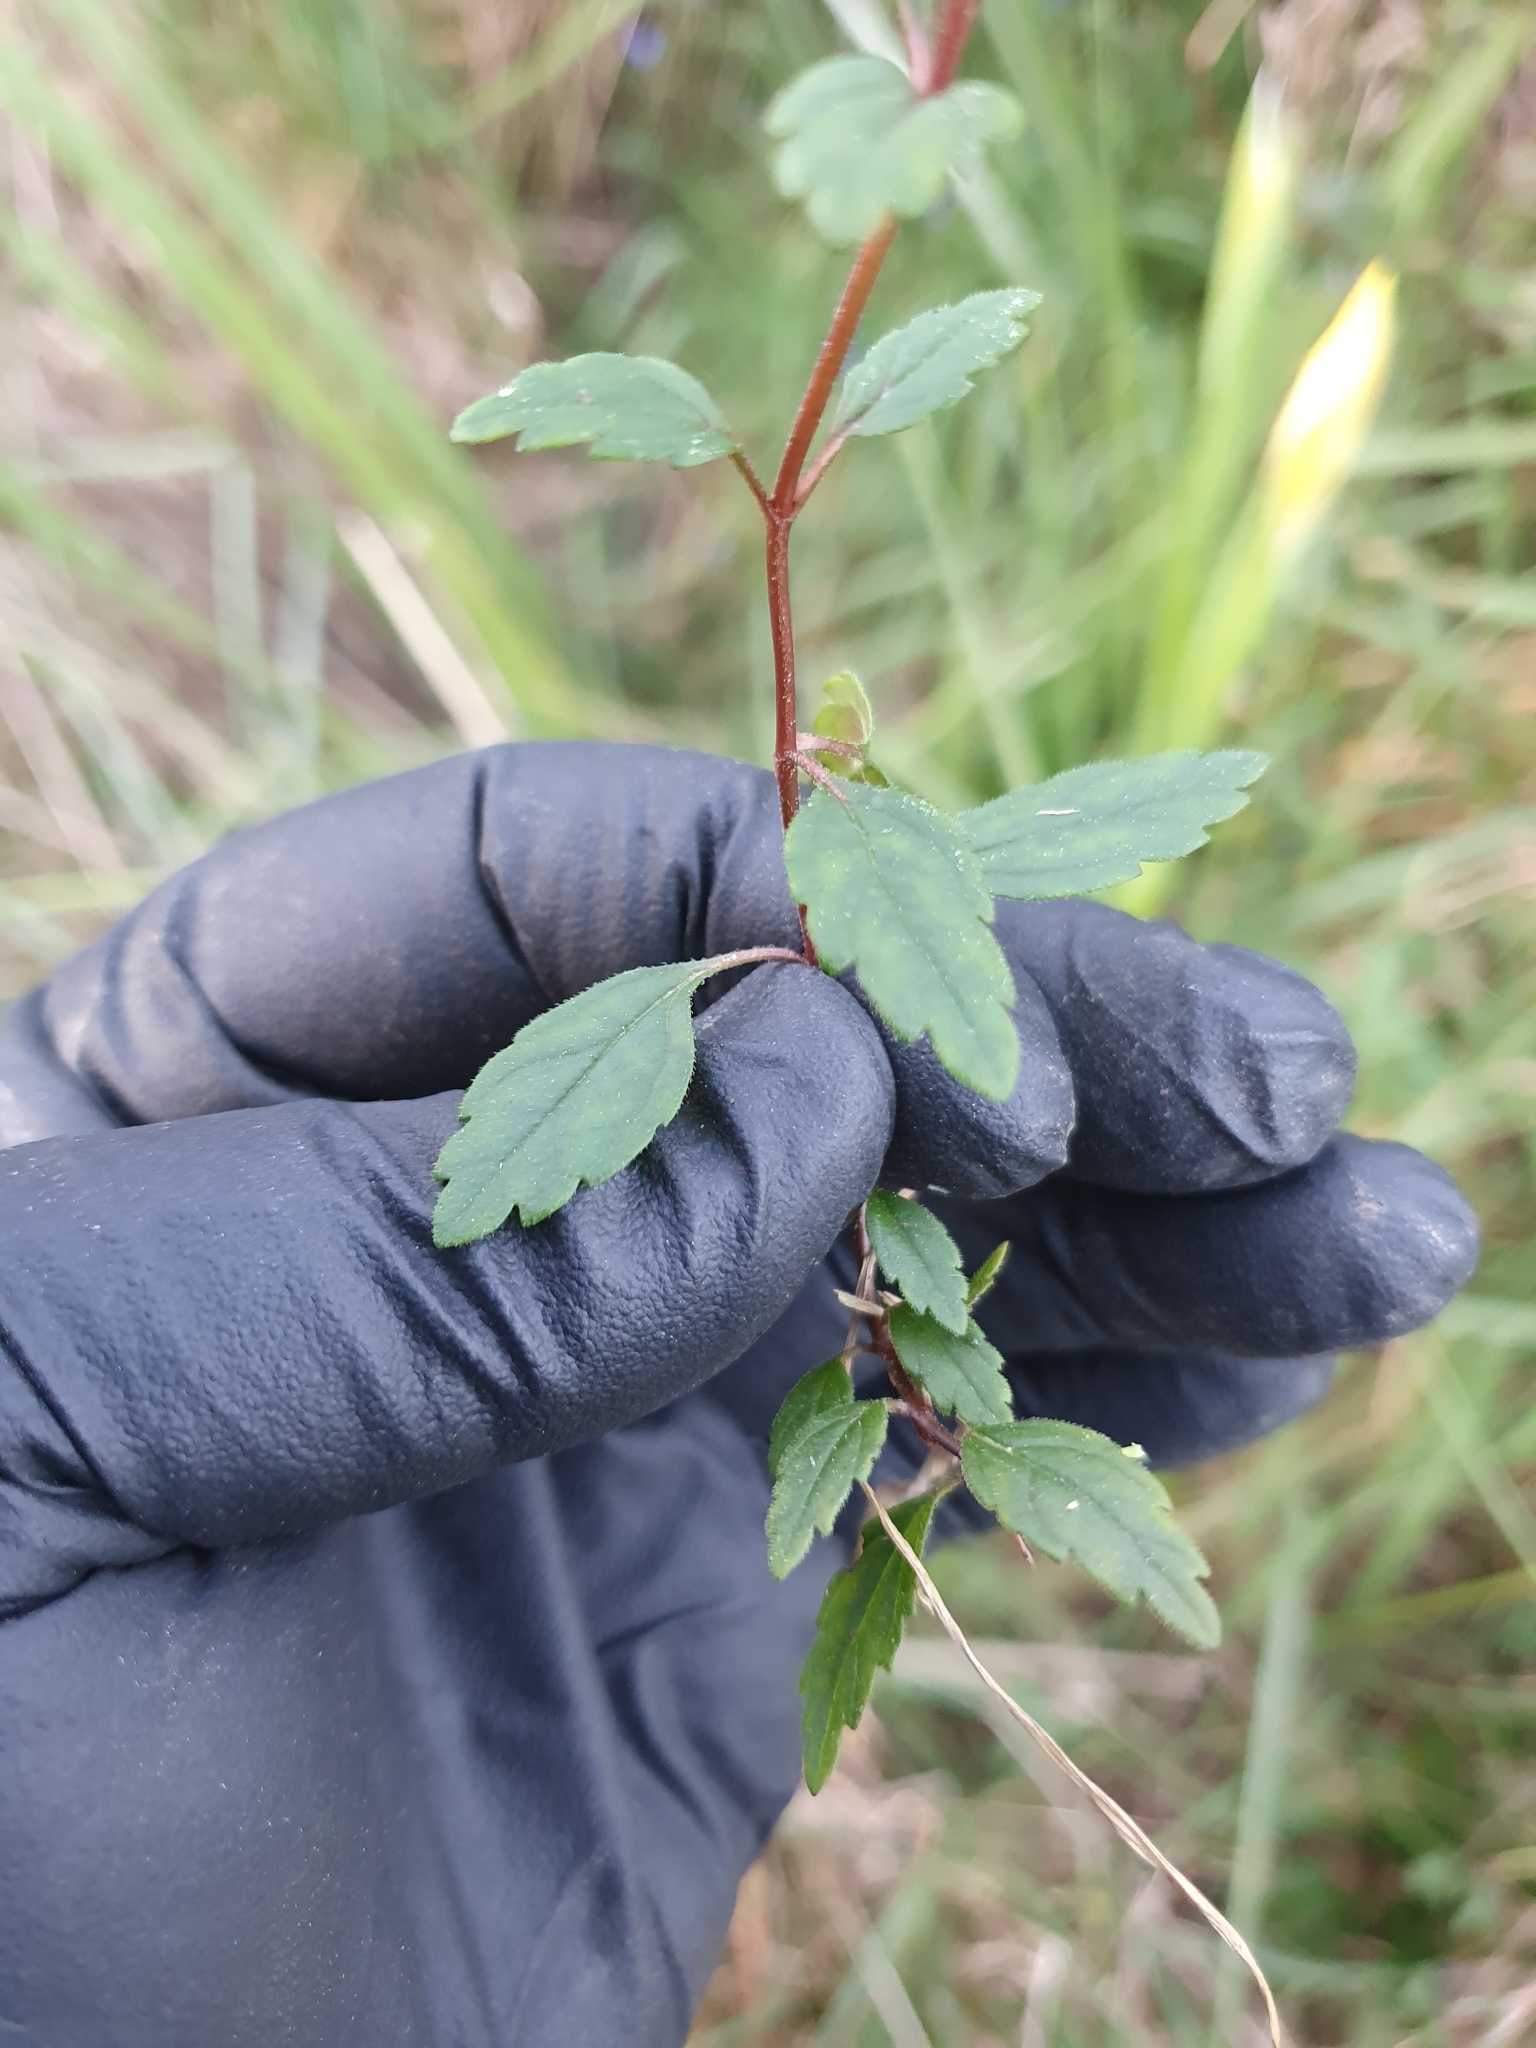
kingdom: Plantae
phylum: Tracheophyta
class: Magnoliopsida
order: Lamiales
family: Plantaginaceae
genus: Veronica
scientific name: Veronica
